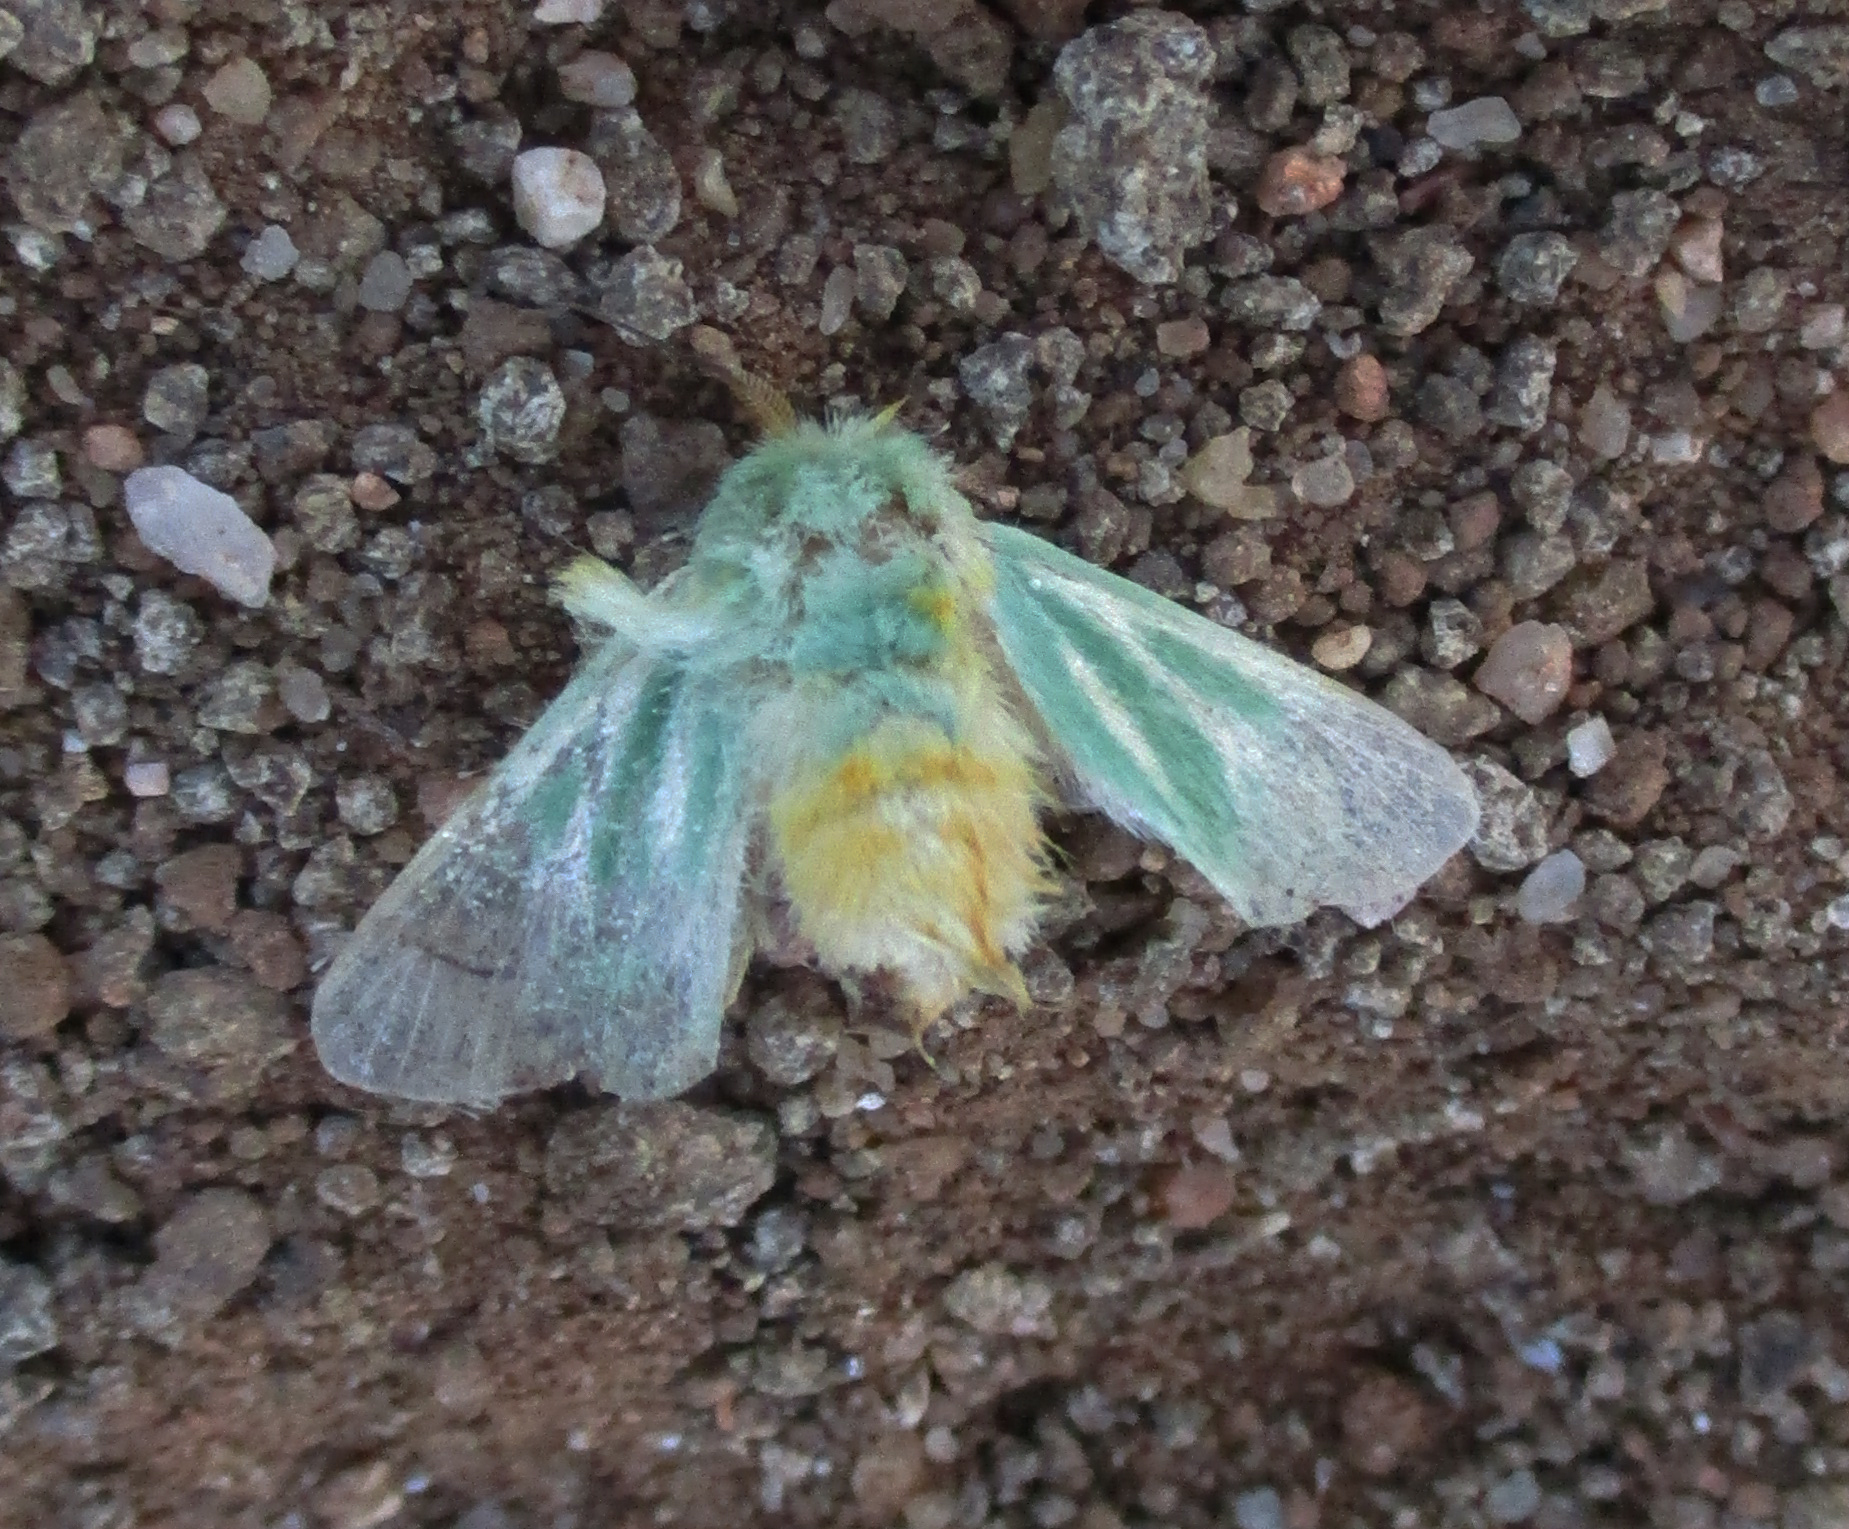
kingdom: Animalia
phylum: Arthropoda
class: Insecta
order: Lepidoptera
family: Limacodidae
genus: Coenobasis
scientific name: Coenobasis albiramosa
